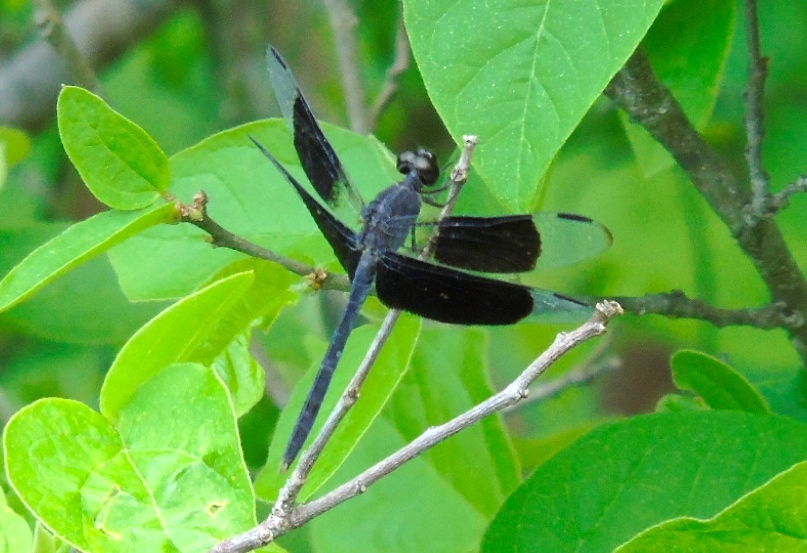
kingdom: Animalia
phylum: Arthropoda
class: Insecta
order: Odonata
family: Libellulidae
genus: Erythrodiplax
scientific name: Erythrodiplax funerea
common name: Black-winged dragonlet
